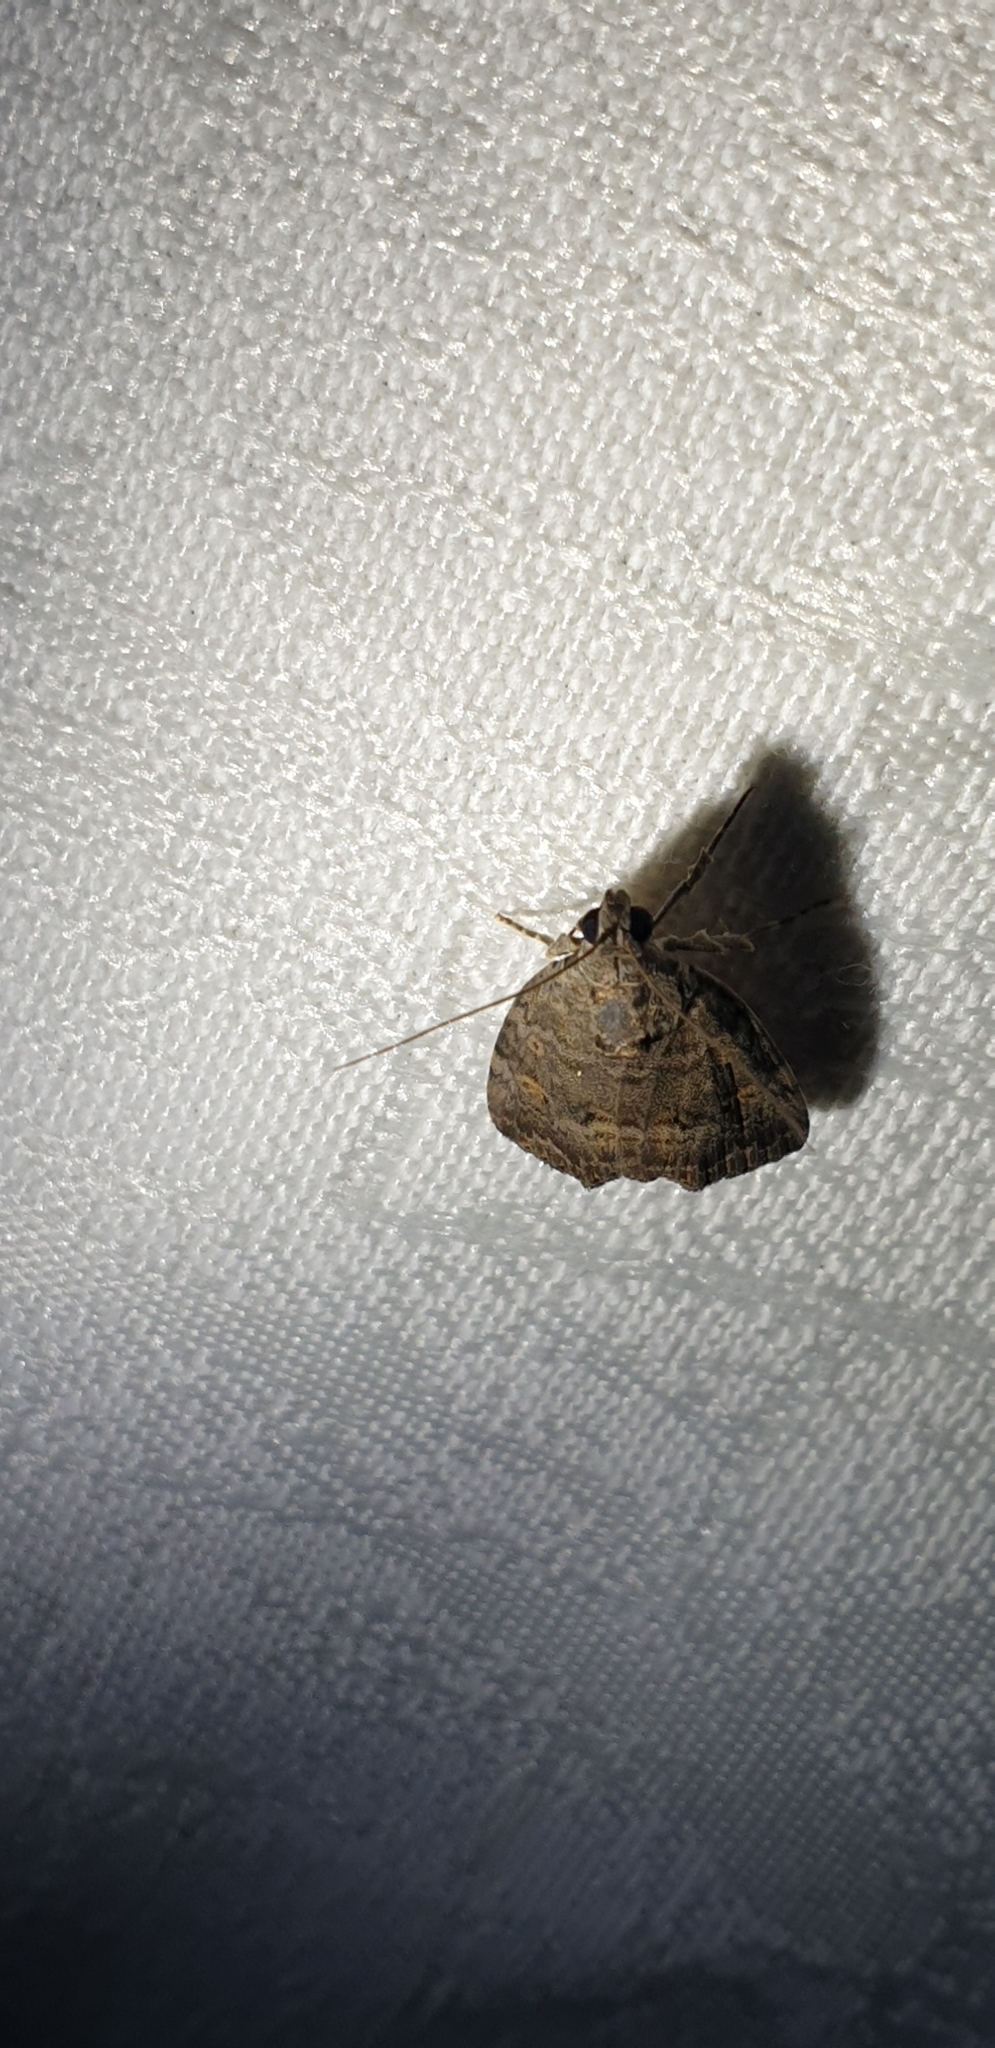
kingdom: Animalia
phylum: Arthropoda
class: Insecta
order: Lepidoptera
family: Noctuidae
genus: Aucha
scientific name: Aucha triphaenoides
